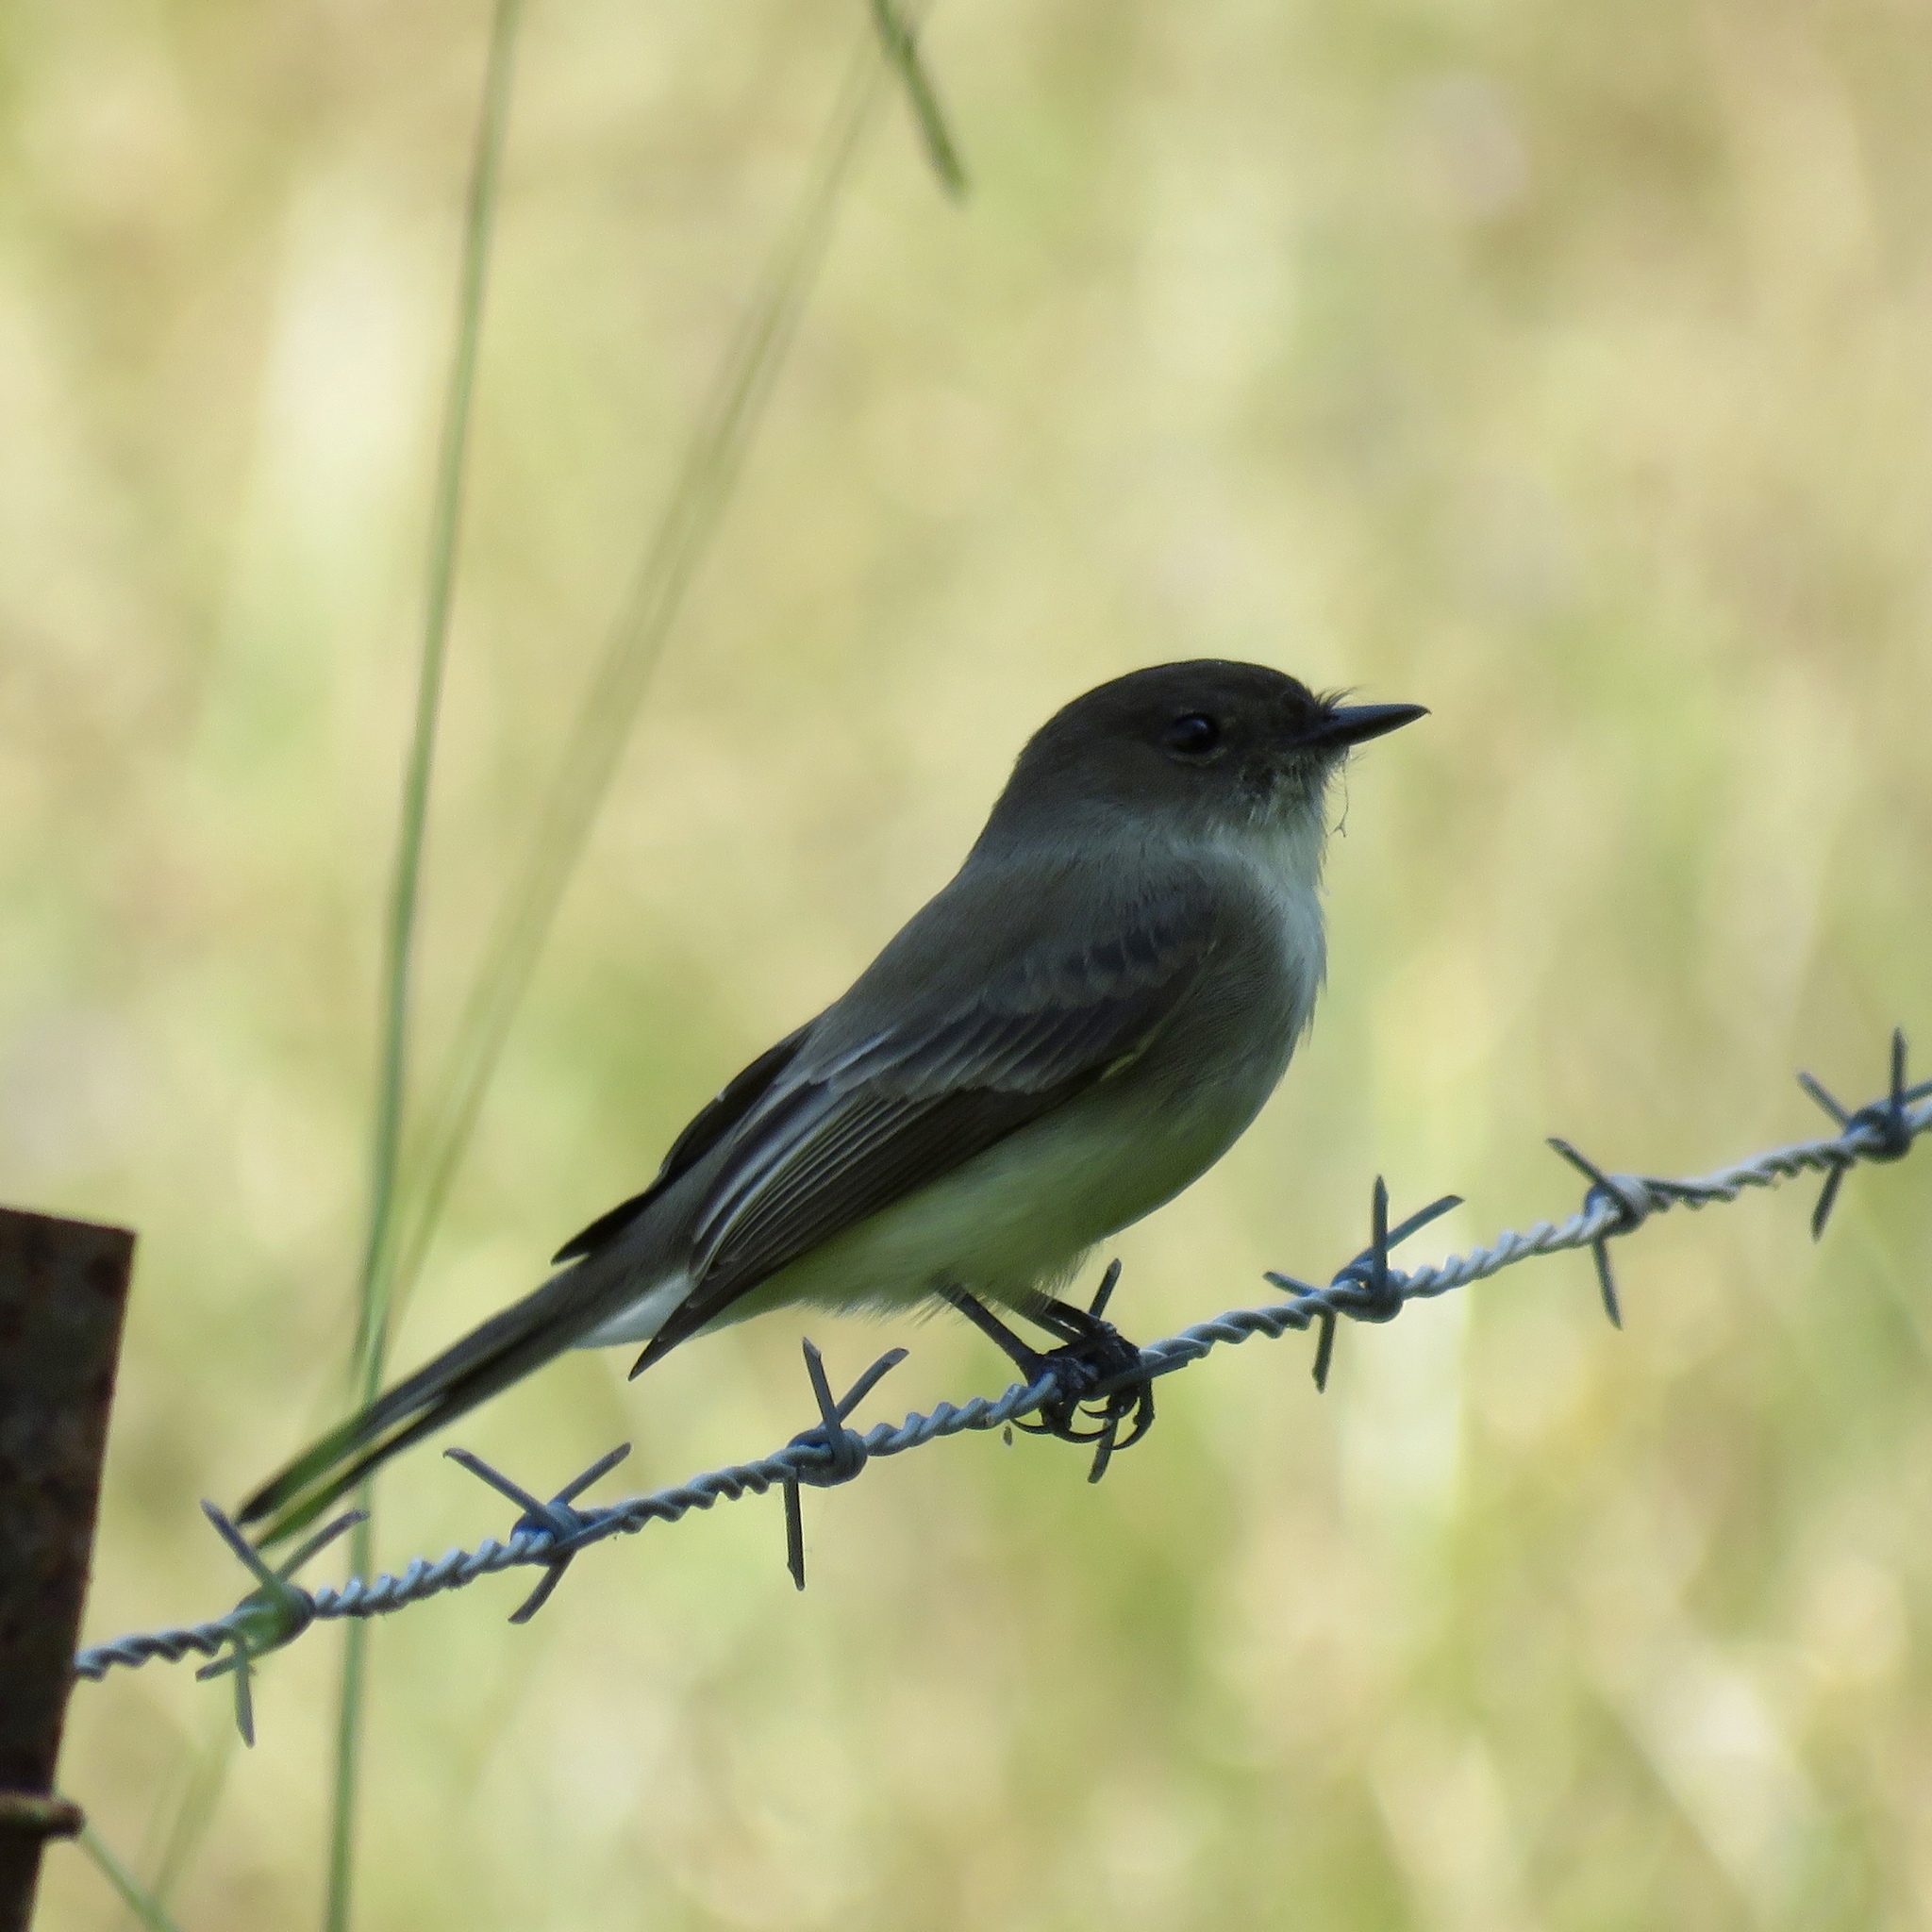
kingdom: Animalia
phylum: Chordata
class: Aves
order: Passeriformes
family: Tyrannidae
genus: Sayornis
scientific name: Sayornis phoebe
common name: Eastern phoebe
